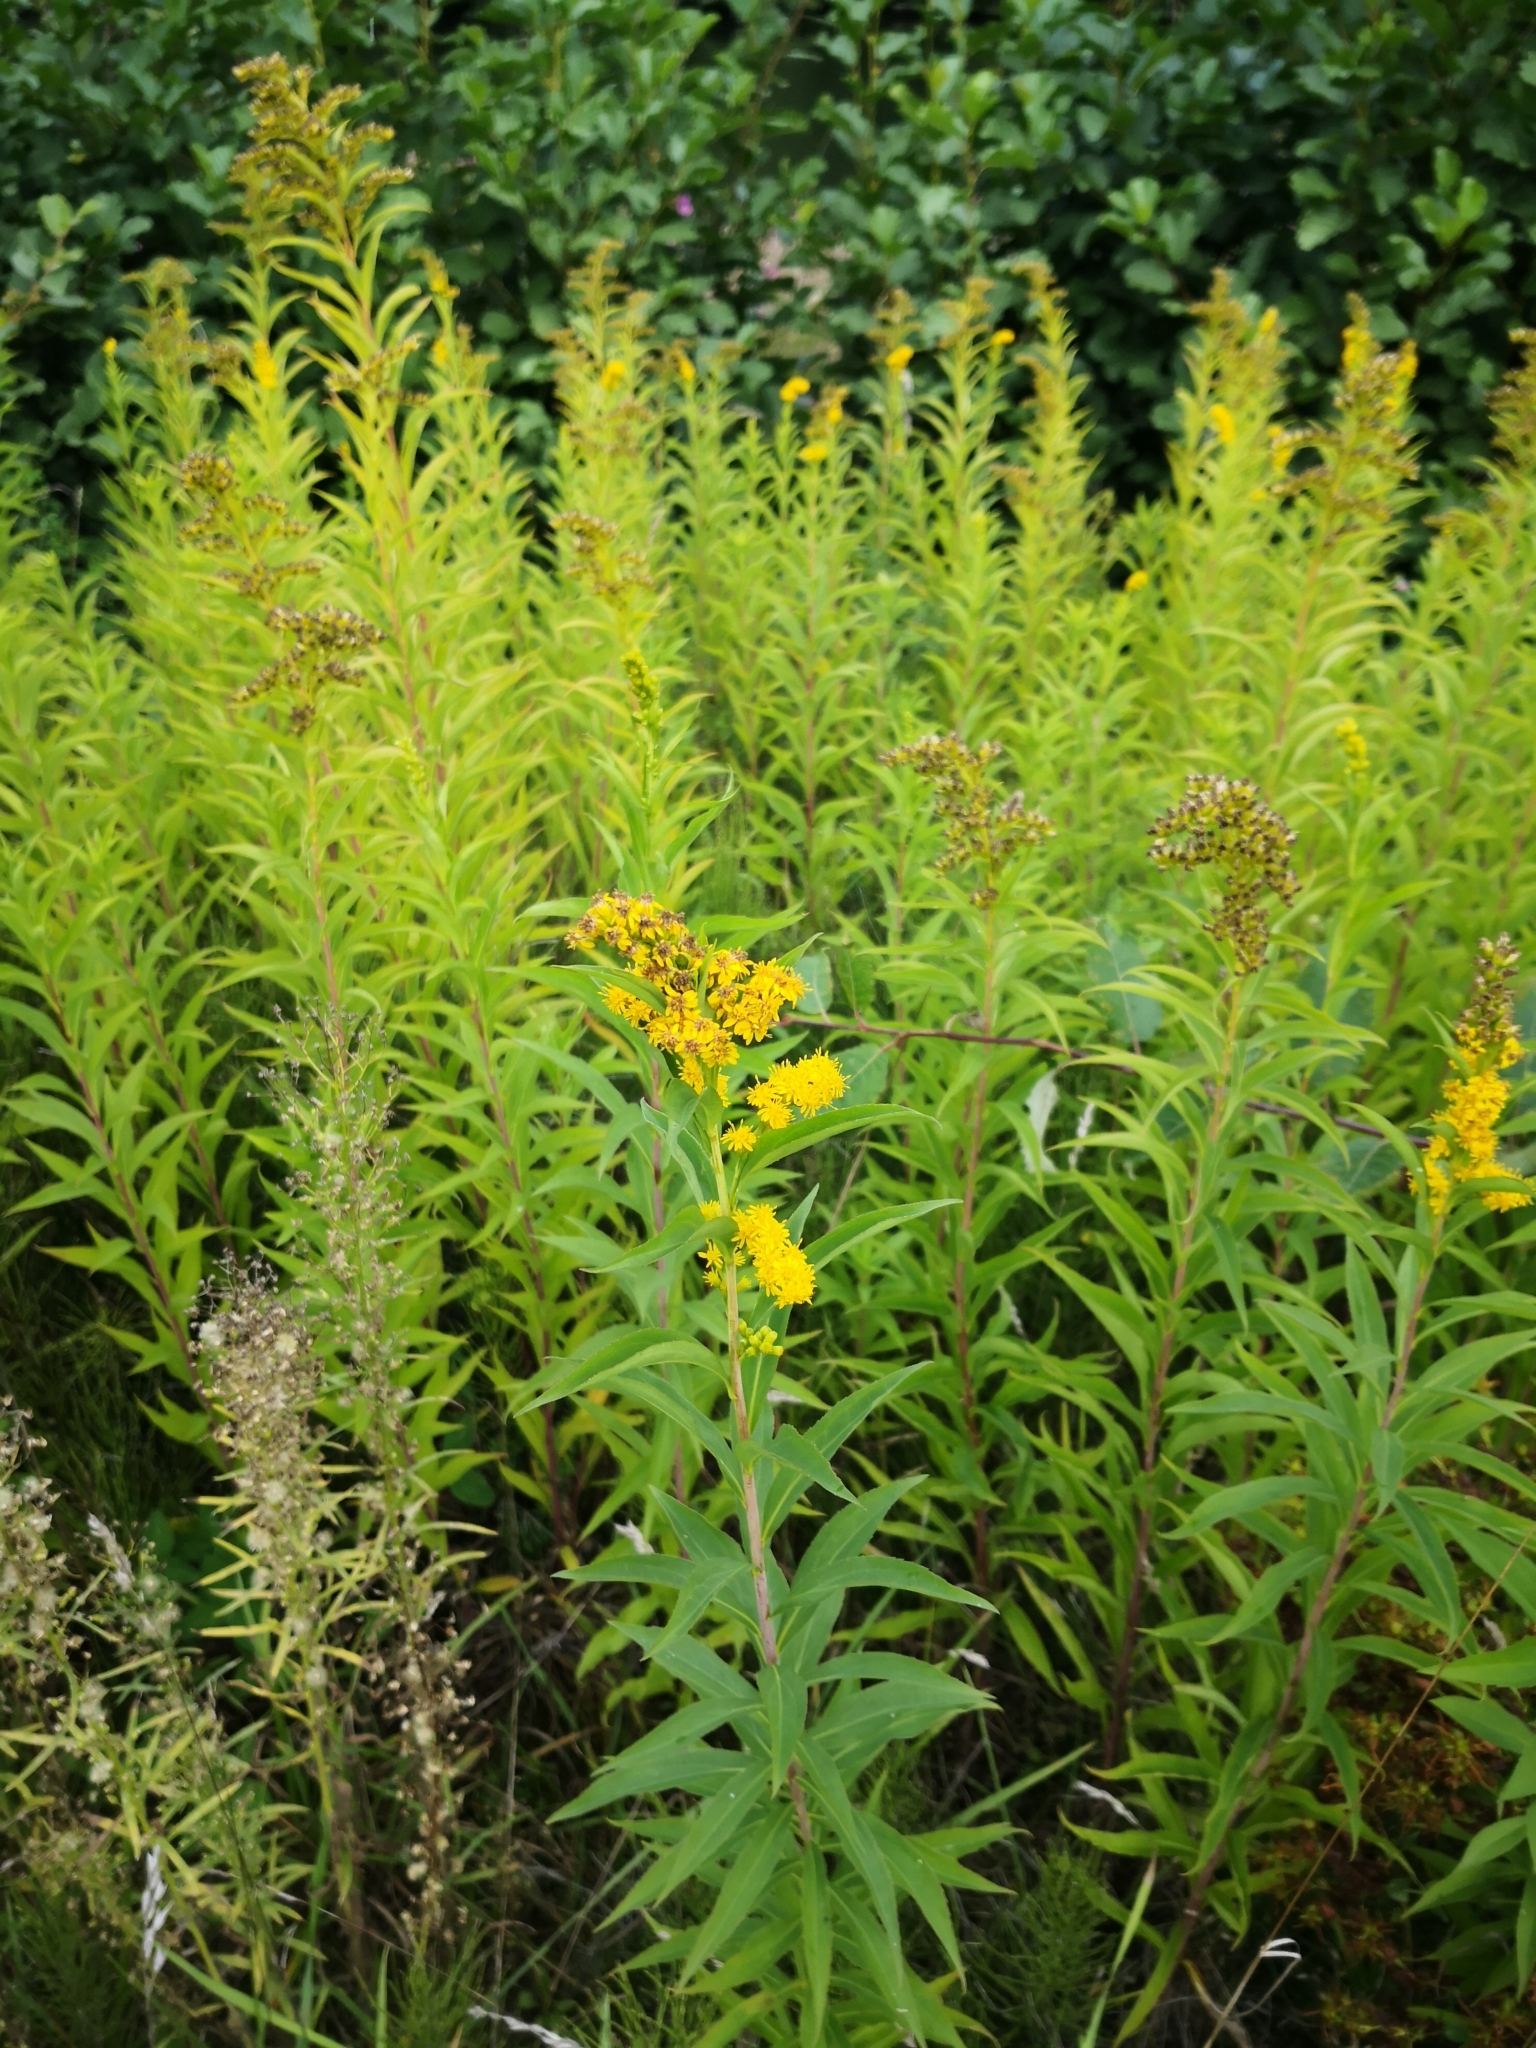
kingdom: Plantae
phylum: Tracheophyta
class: Magnoliopsida
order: Asterales
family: Asteraceae
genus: Solidago
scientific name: Solidago gigantea
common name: Giant goldenrod
